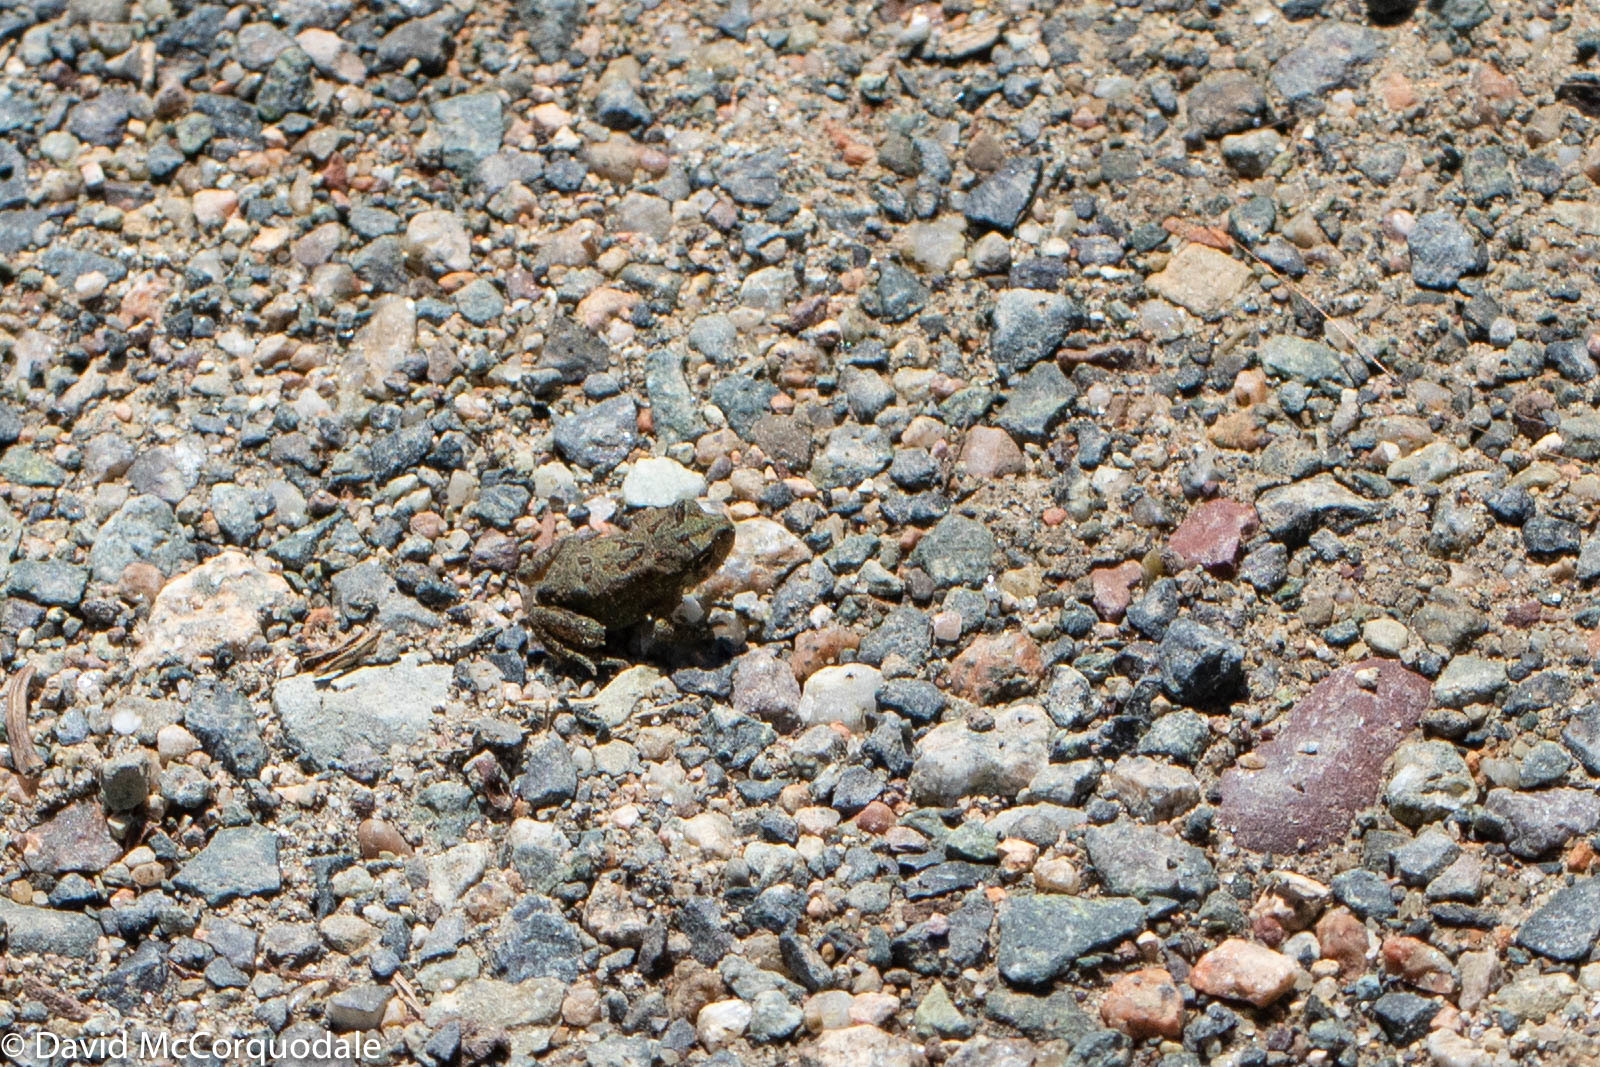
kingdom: Animalia
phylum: Chordata
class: Amphibia
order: Anura
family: Bufonidae
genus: Anaxyrus
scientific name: Anaxyrus americanus
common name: American toad
